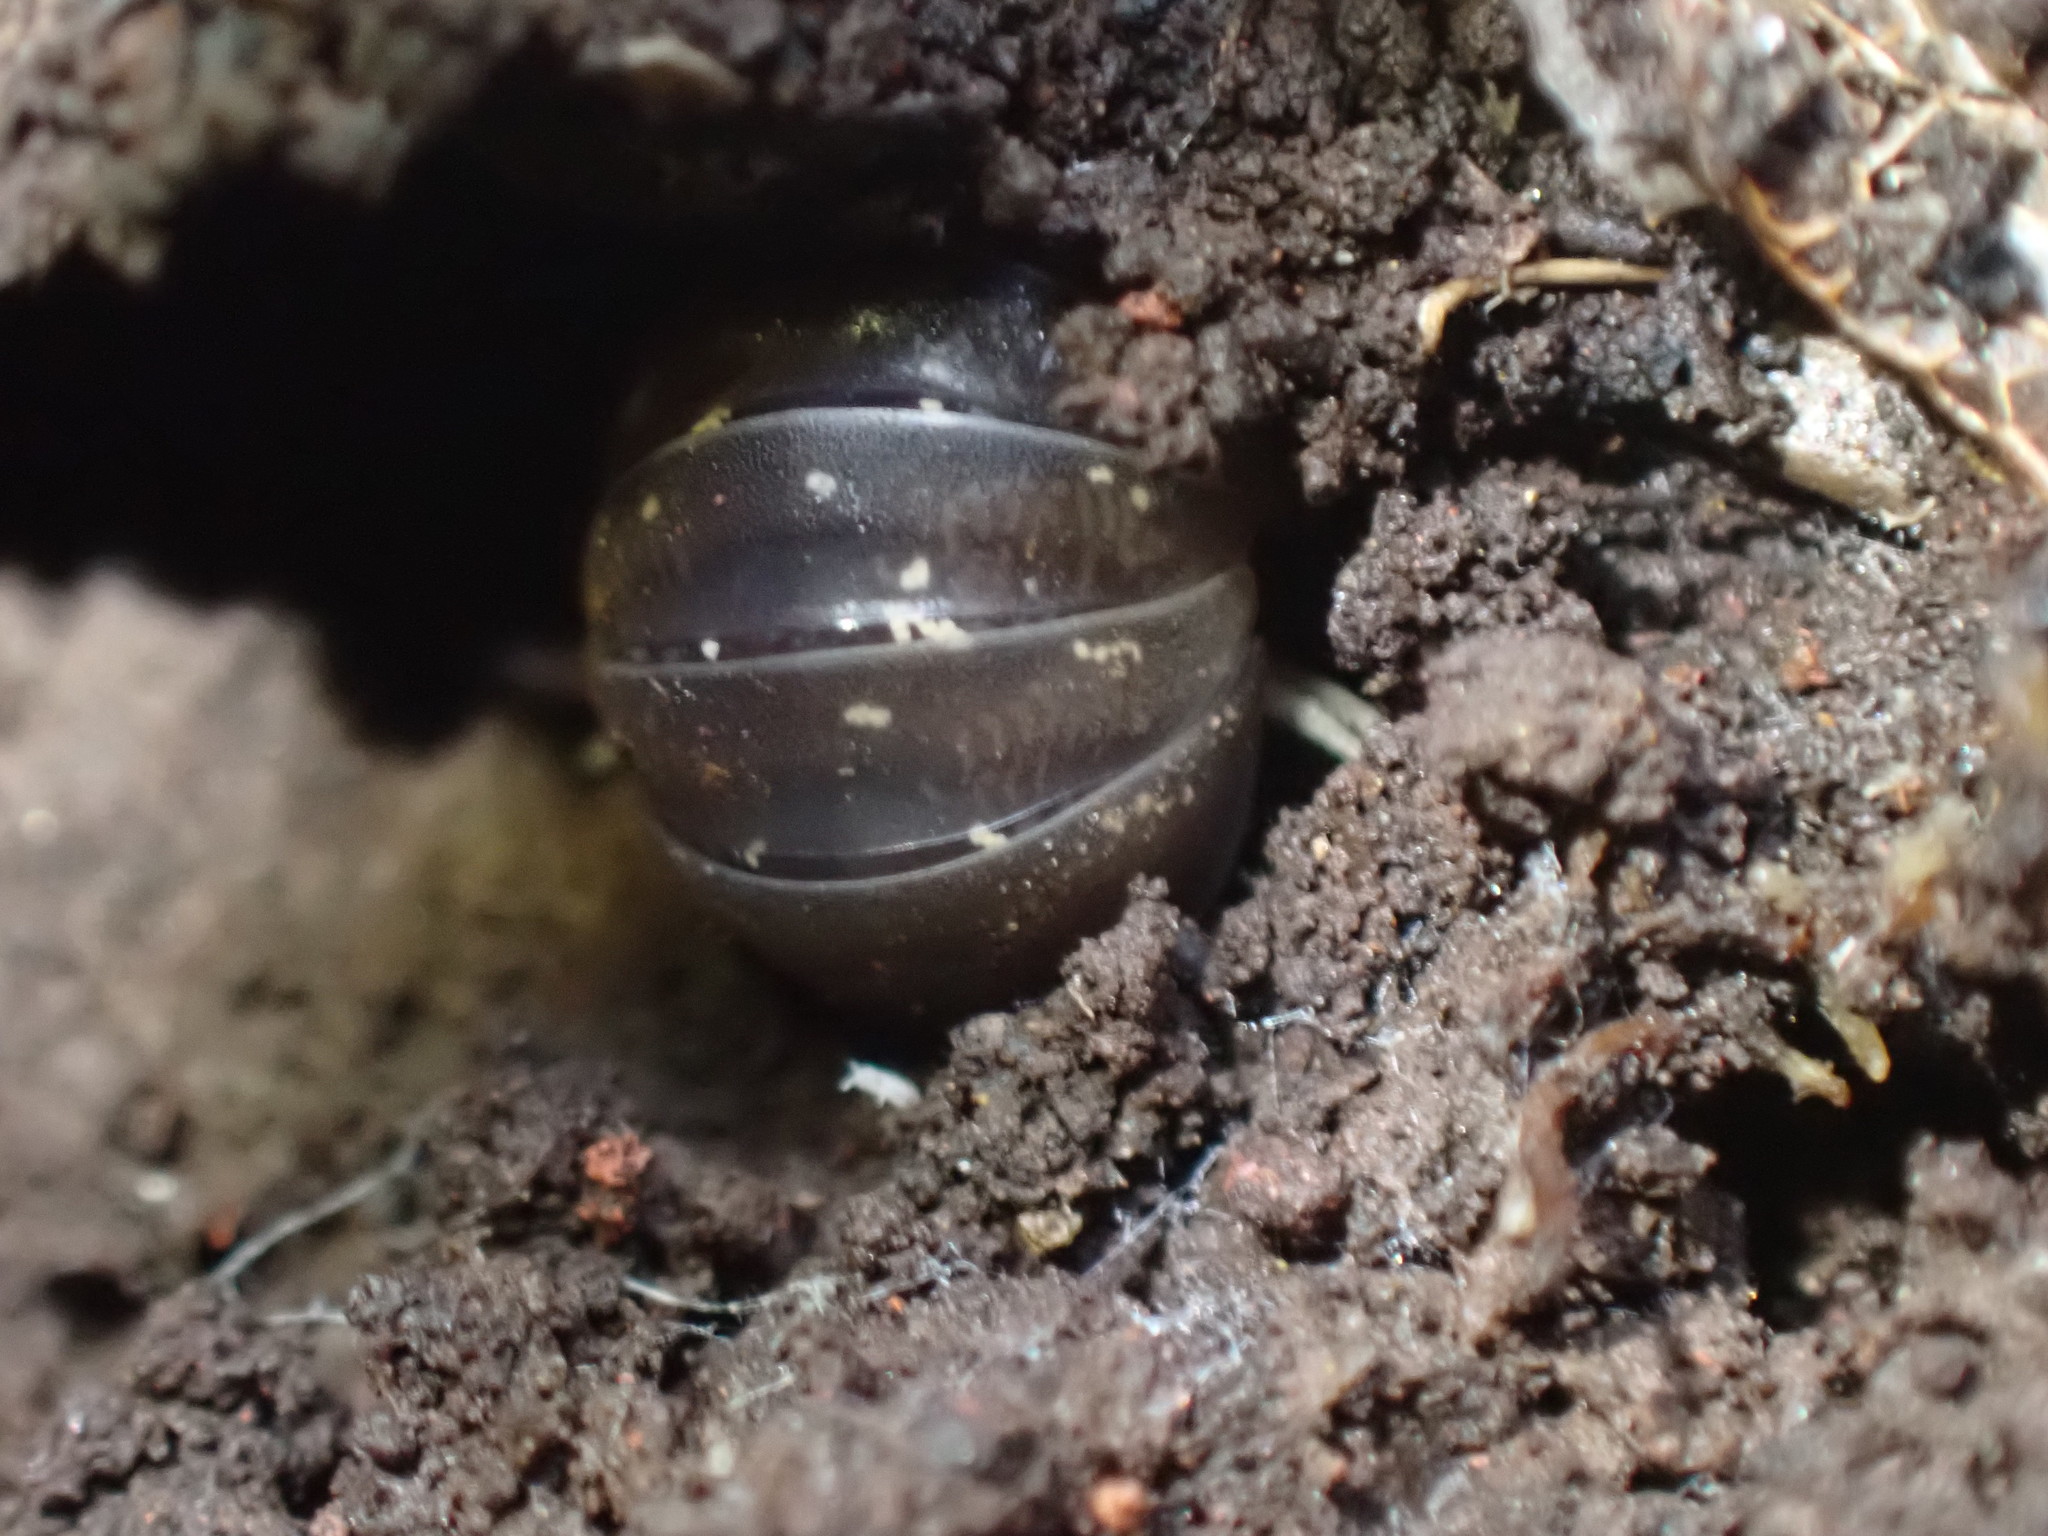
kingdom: Animalia
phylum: Arthropoda
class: Malacostraca
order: Isopoda
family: Armadillidiidae
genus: Armadillidium
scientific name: Armadillidium vulgare
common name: Common pill woodlouse
